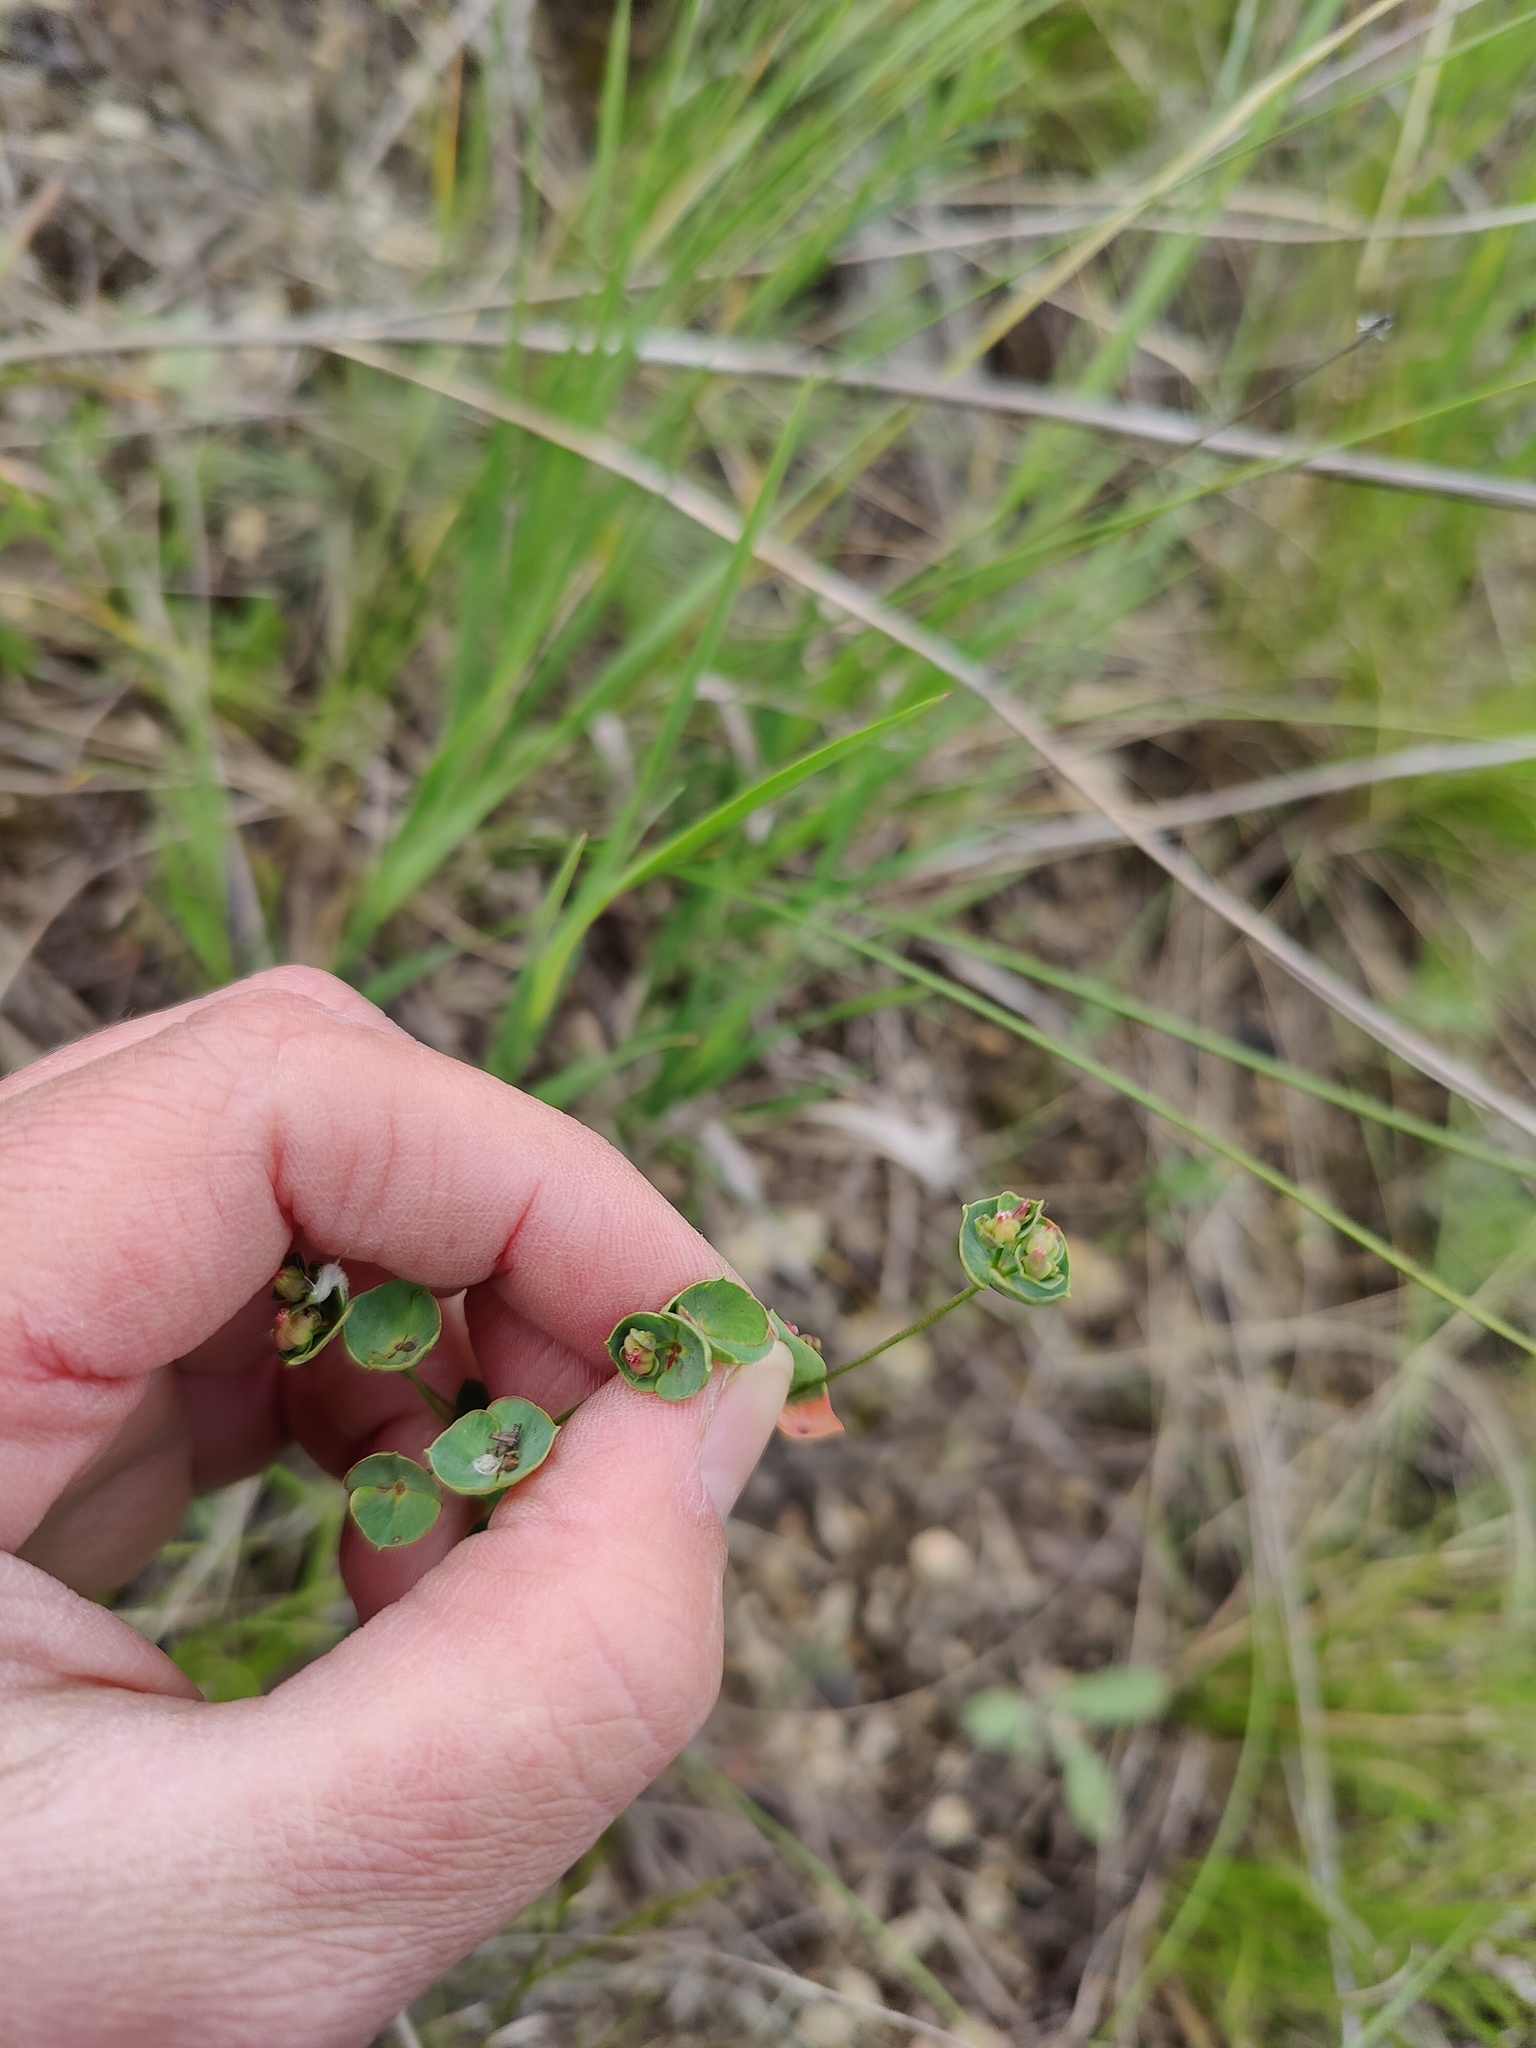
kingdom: Plantae
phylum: Tracheophyta
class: Magnoliopsida
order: Malpighiales
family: Euphorbiaceae
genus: Euphorbia
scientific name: Euphorbia microcarpa
